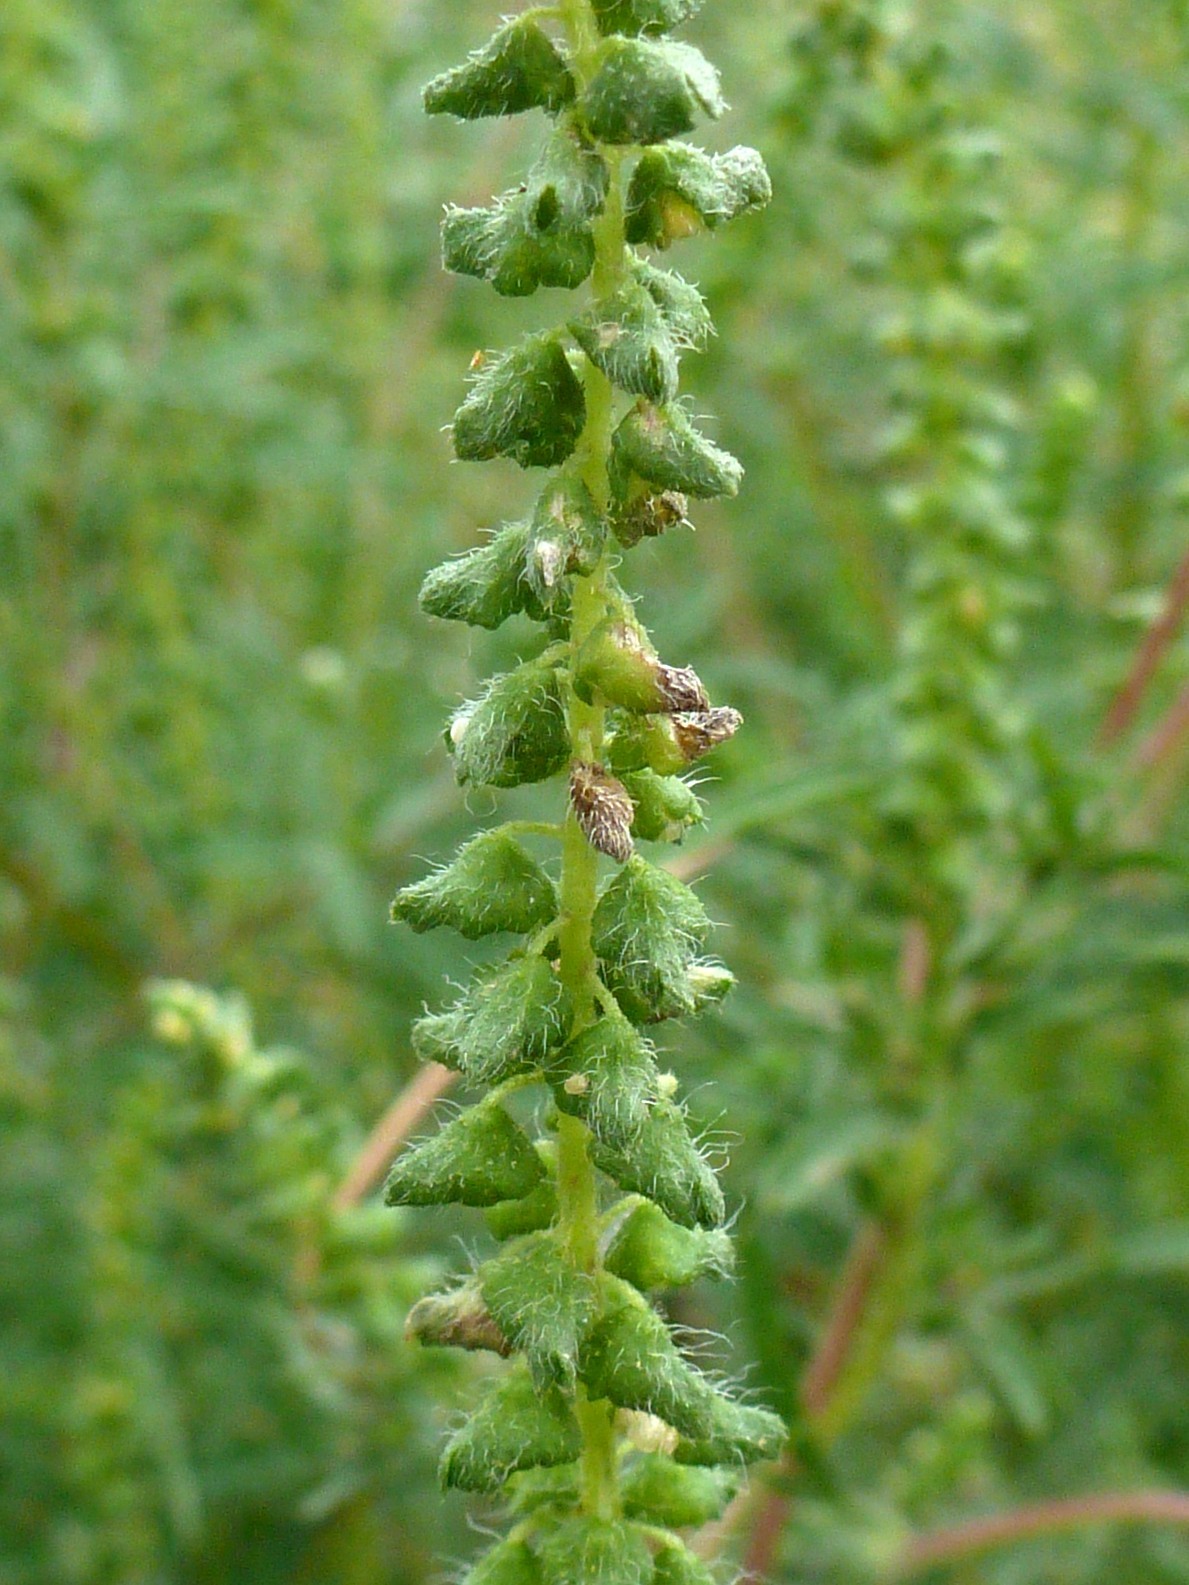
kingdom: Plantae
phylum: Tracheophyta
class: Magnoliopsida
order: Asterales
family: Asteraceae
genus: Ambrosia
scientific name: Ambrosia artemisiifolia
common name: Annual ragweed
